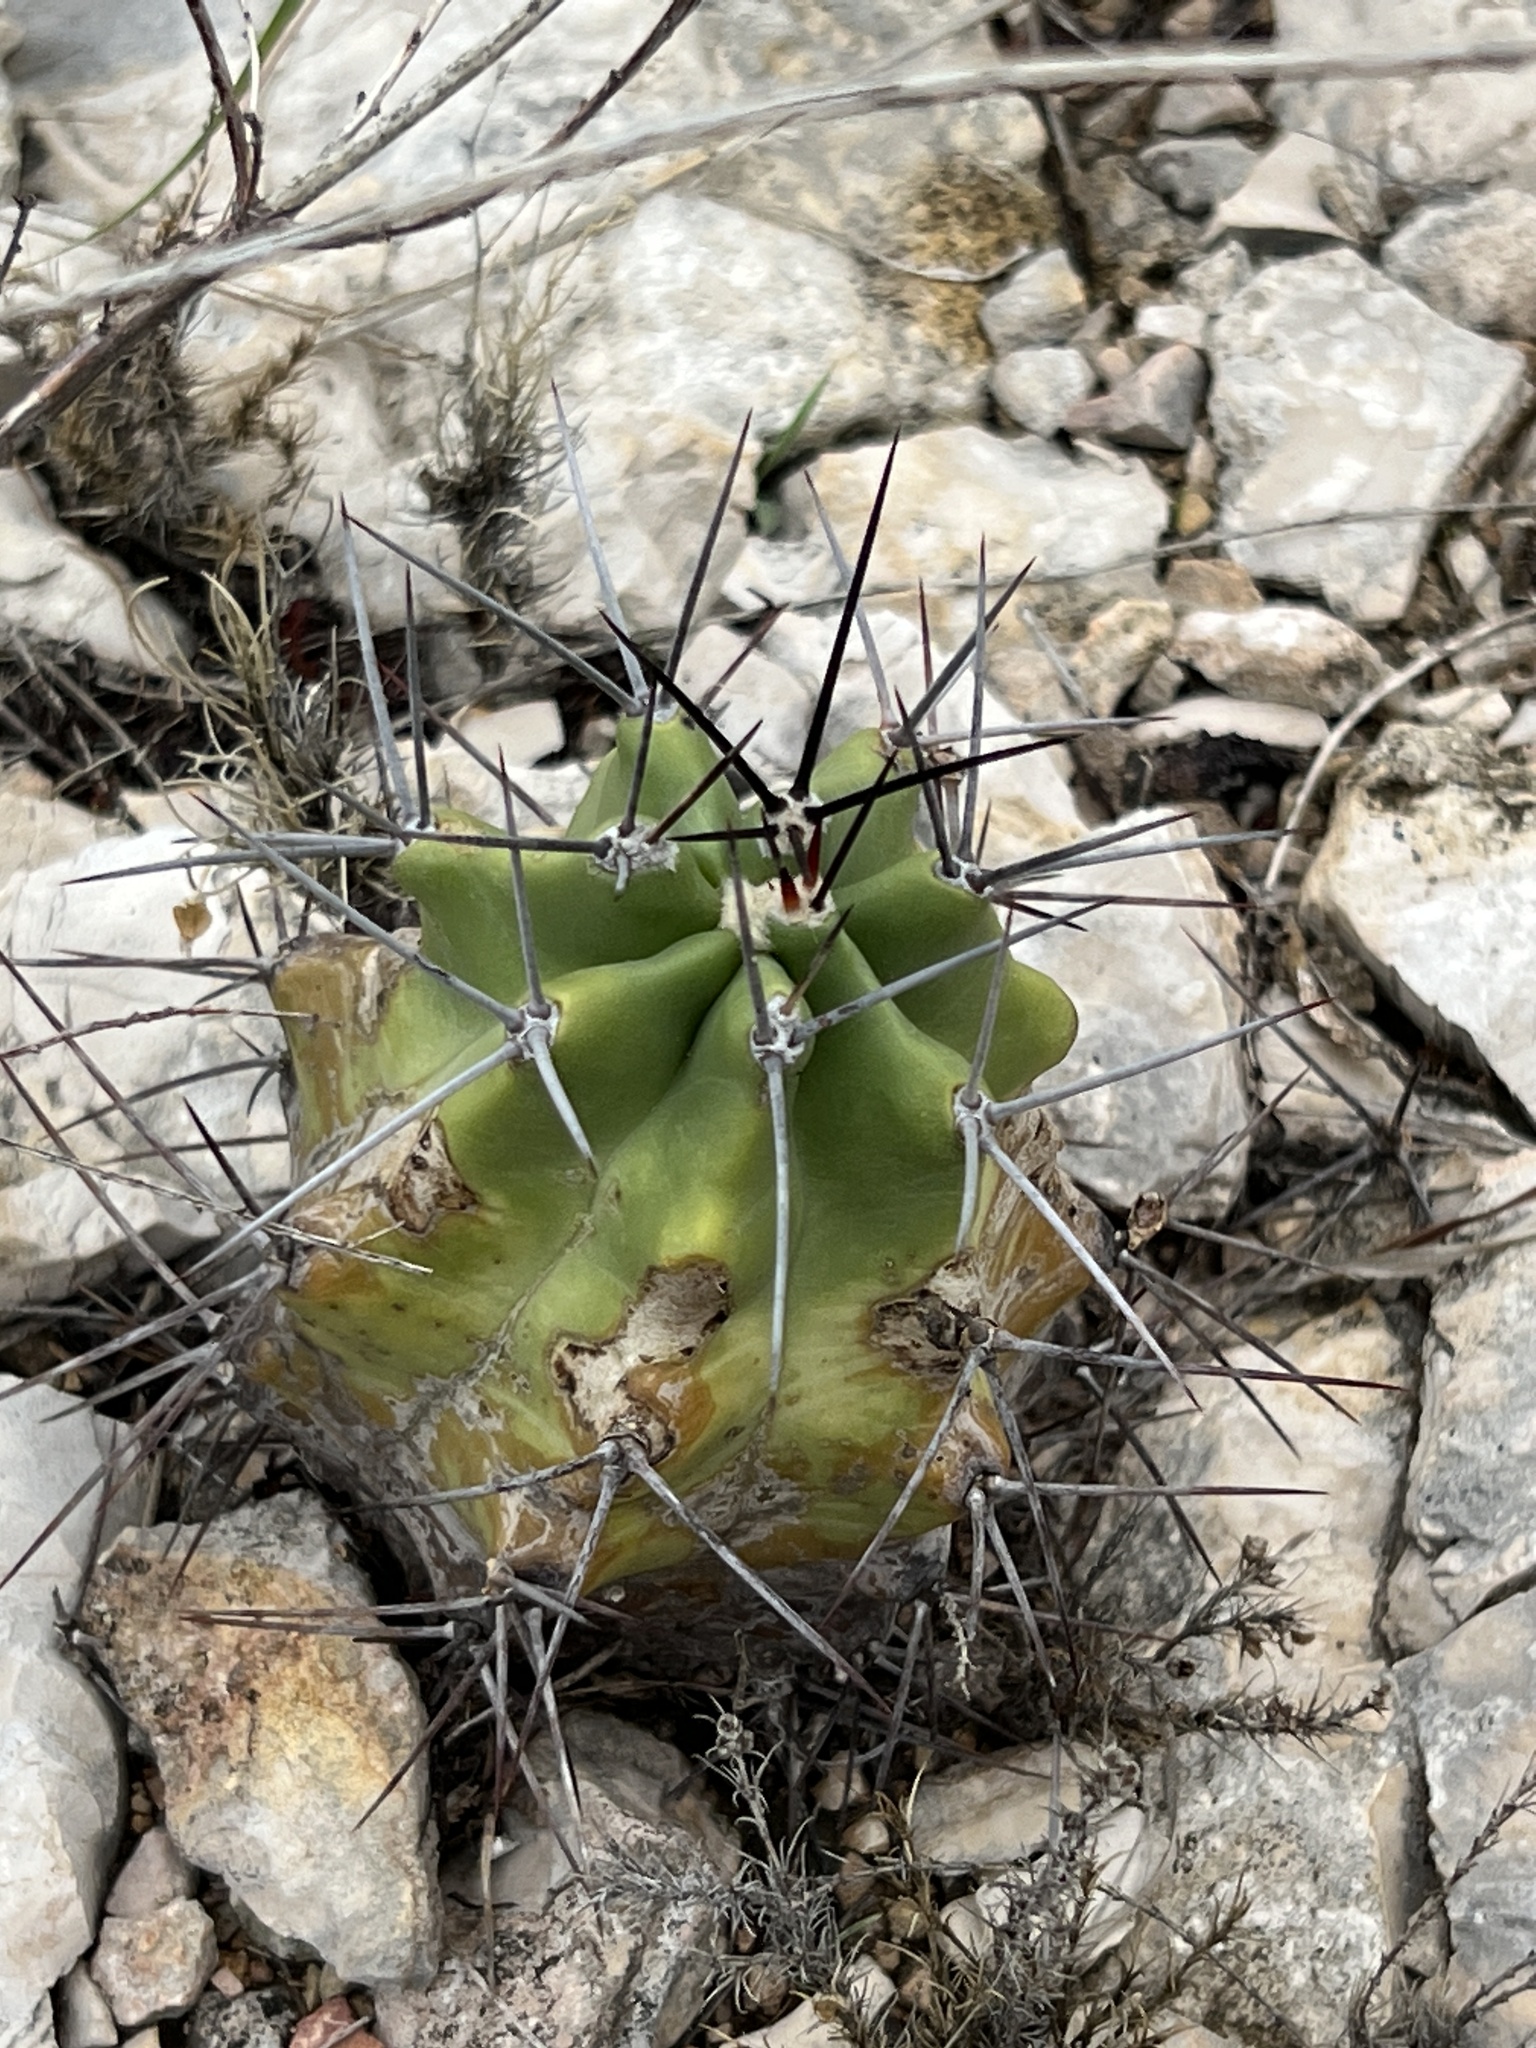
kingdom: Plantae
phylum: Tracheophyta
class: Magnoliopsida
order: Caryophyllales
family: Cactaceae
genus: Echinocereus
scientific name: Echinocereus coccineus
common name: Scarlet hedgehog cactus
